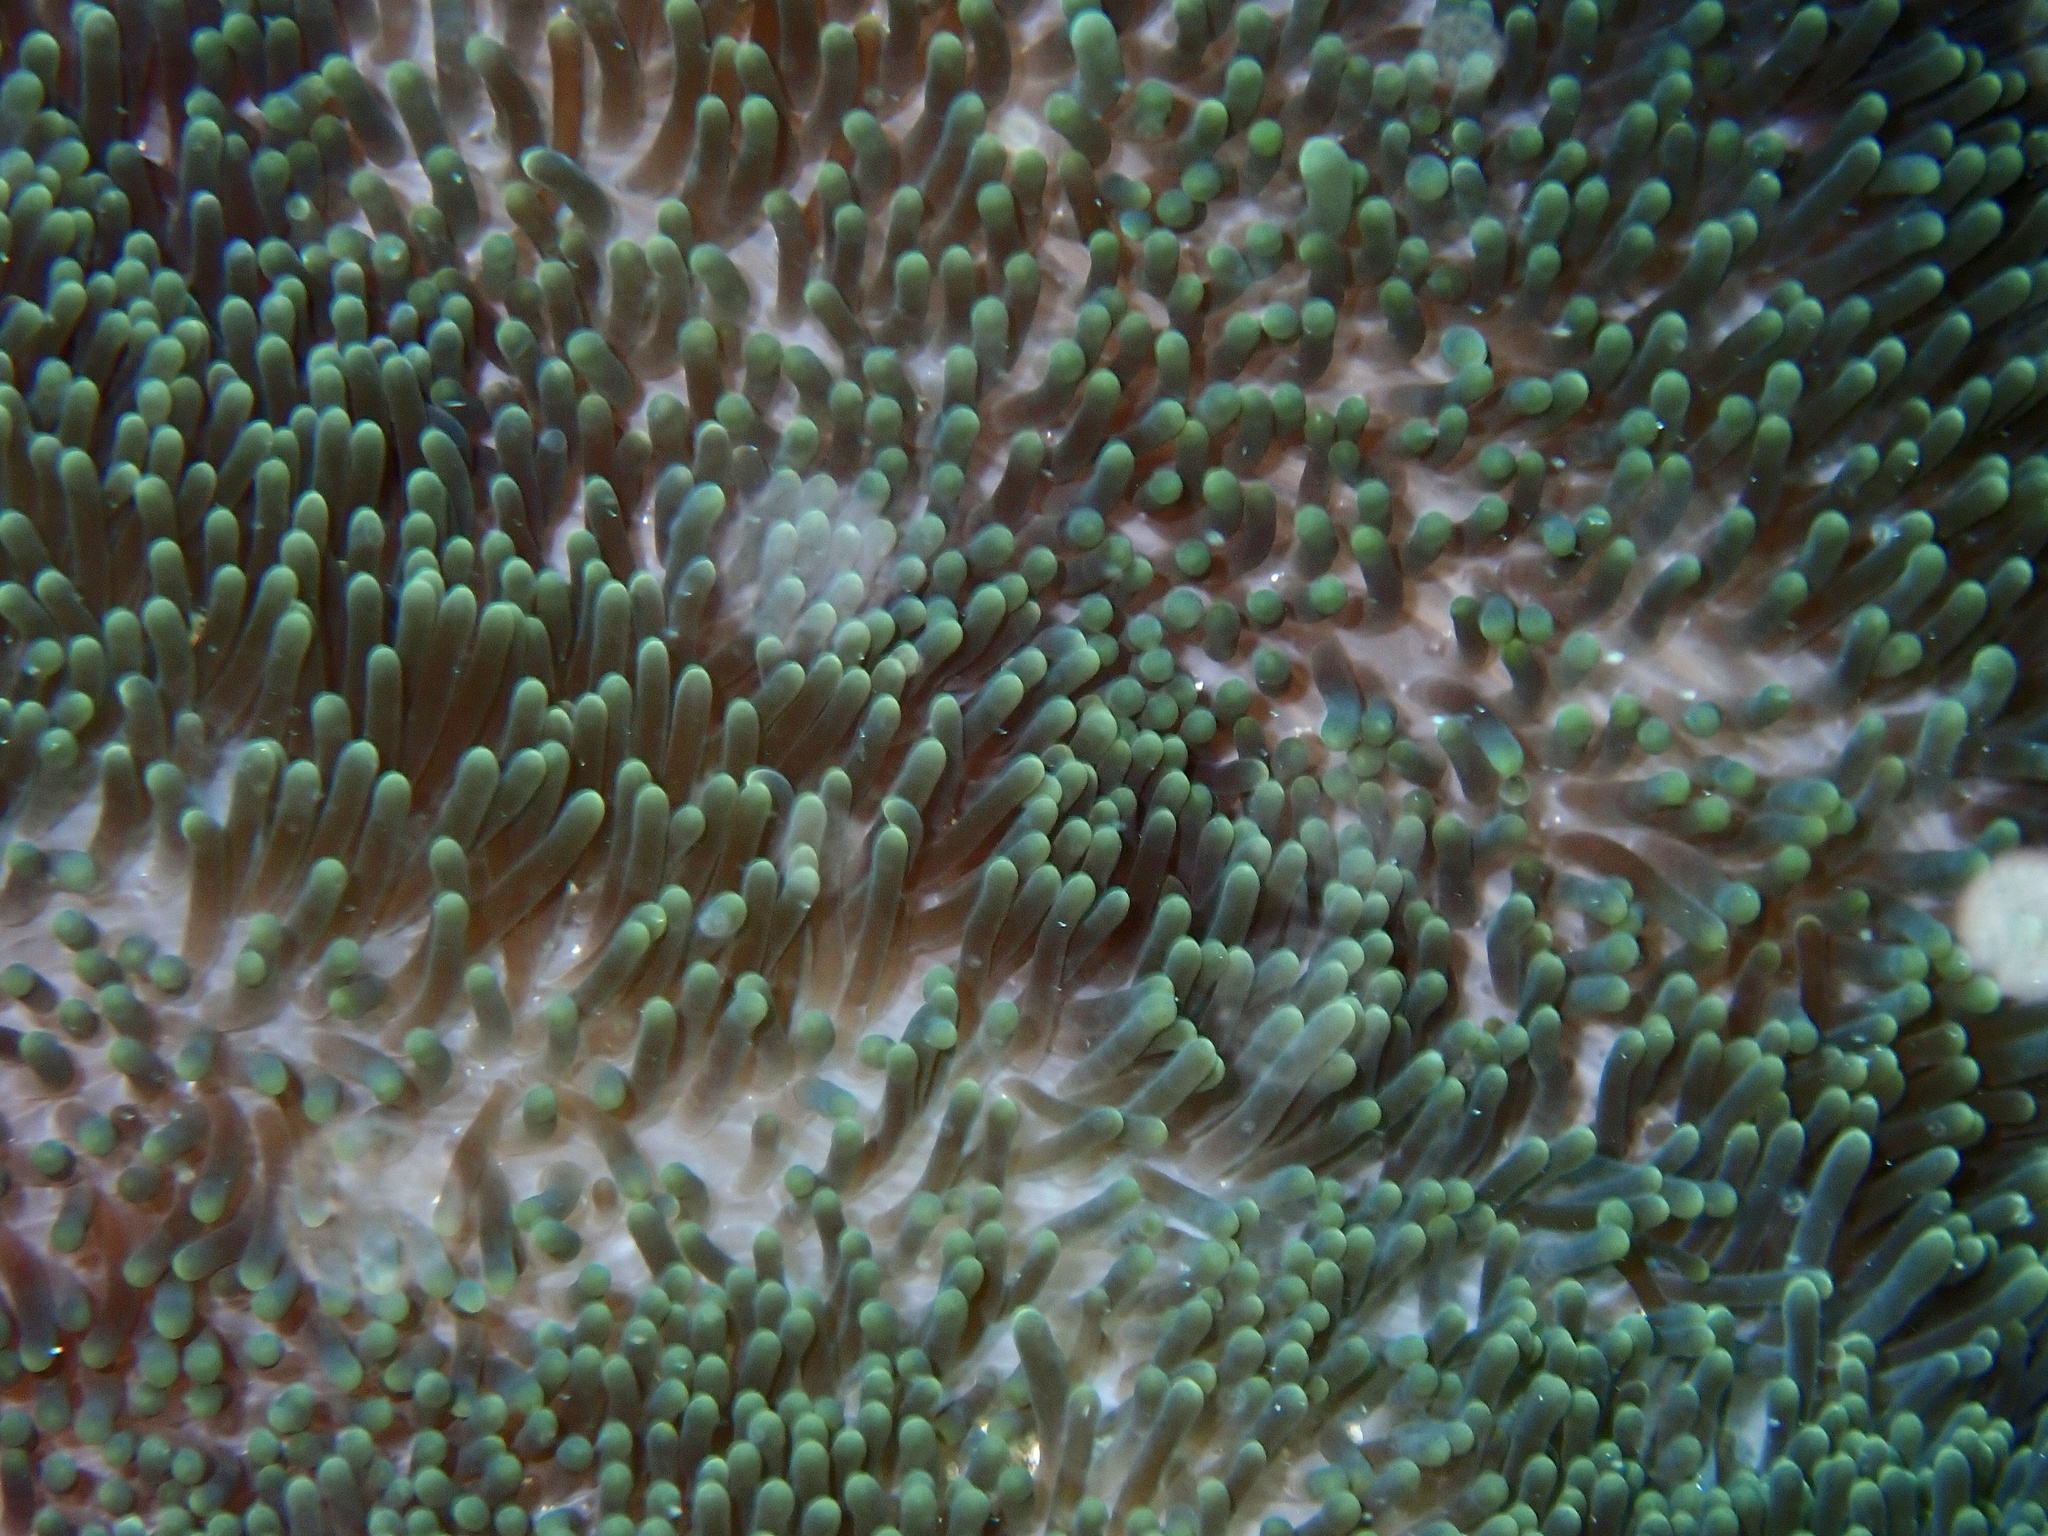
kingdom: Animalia
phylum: Cnidaria
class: Anthozoa
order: Actiniaria
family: Stichodactylidae
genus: Stichodactyla
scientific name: Stichodactyla mertensii
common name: Merten's sea anemone
